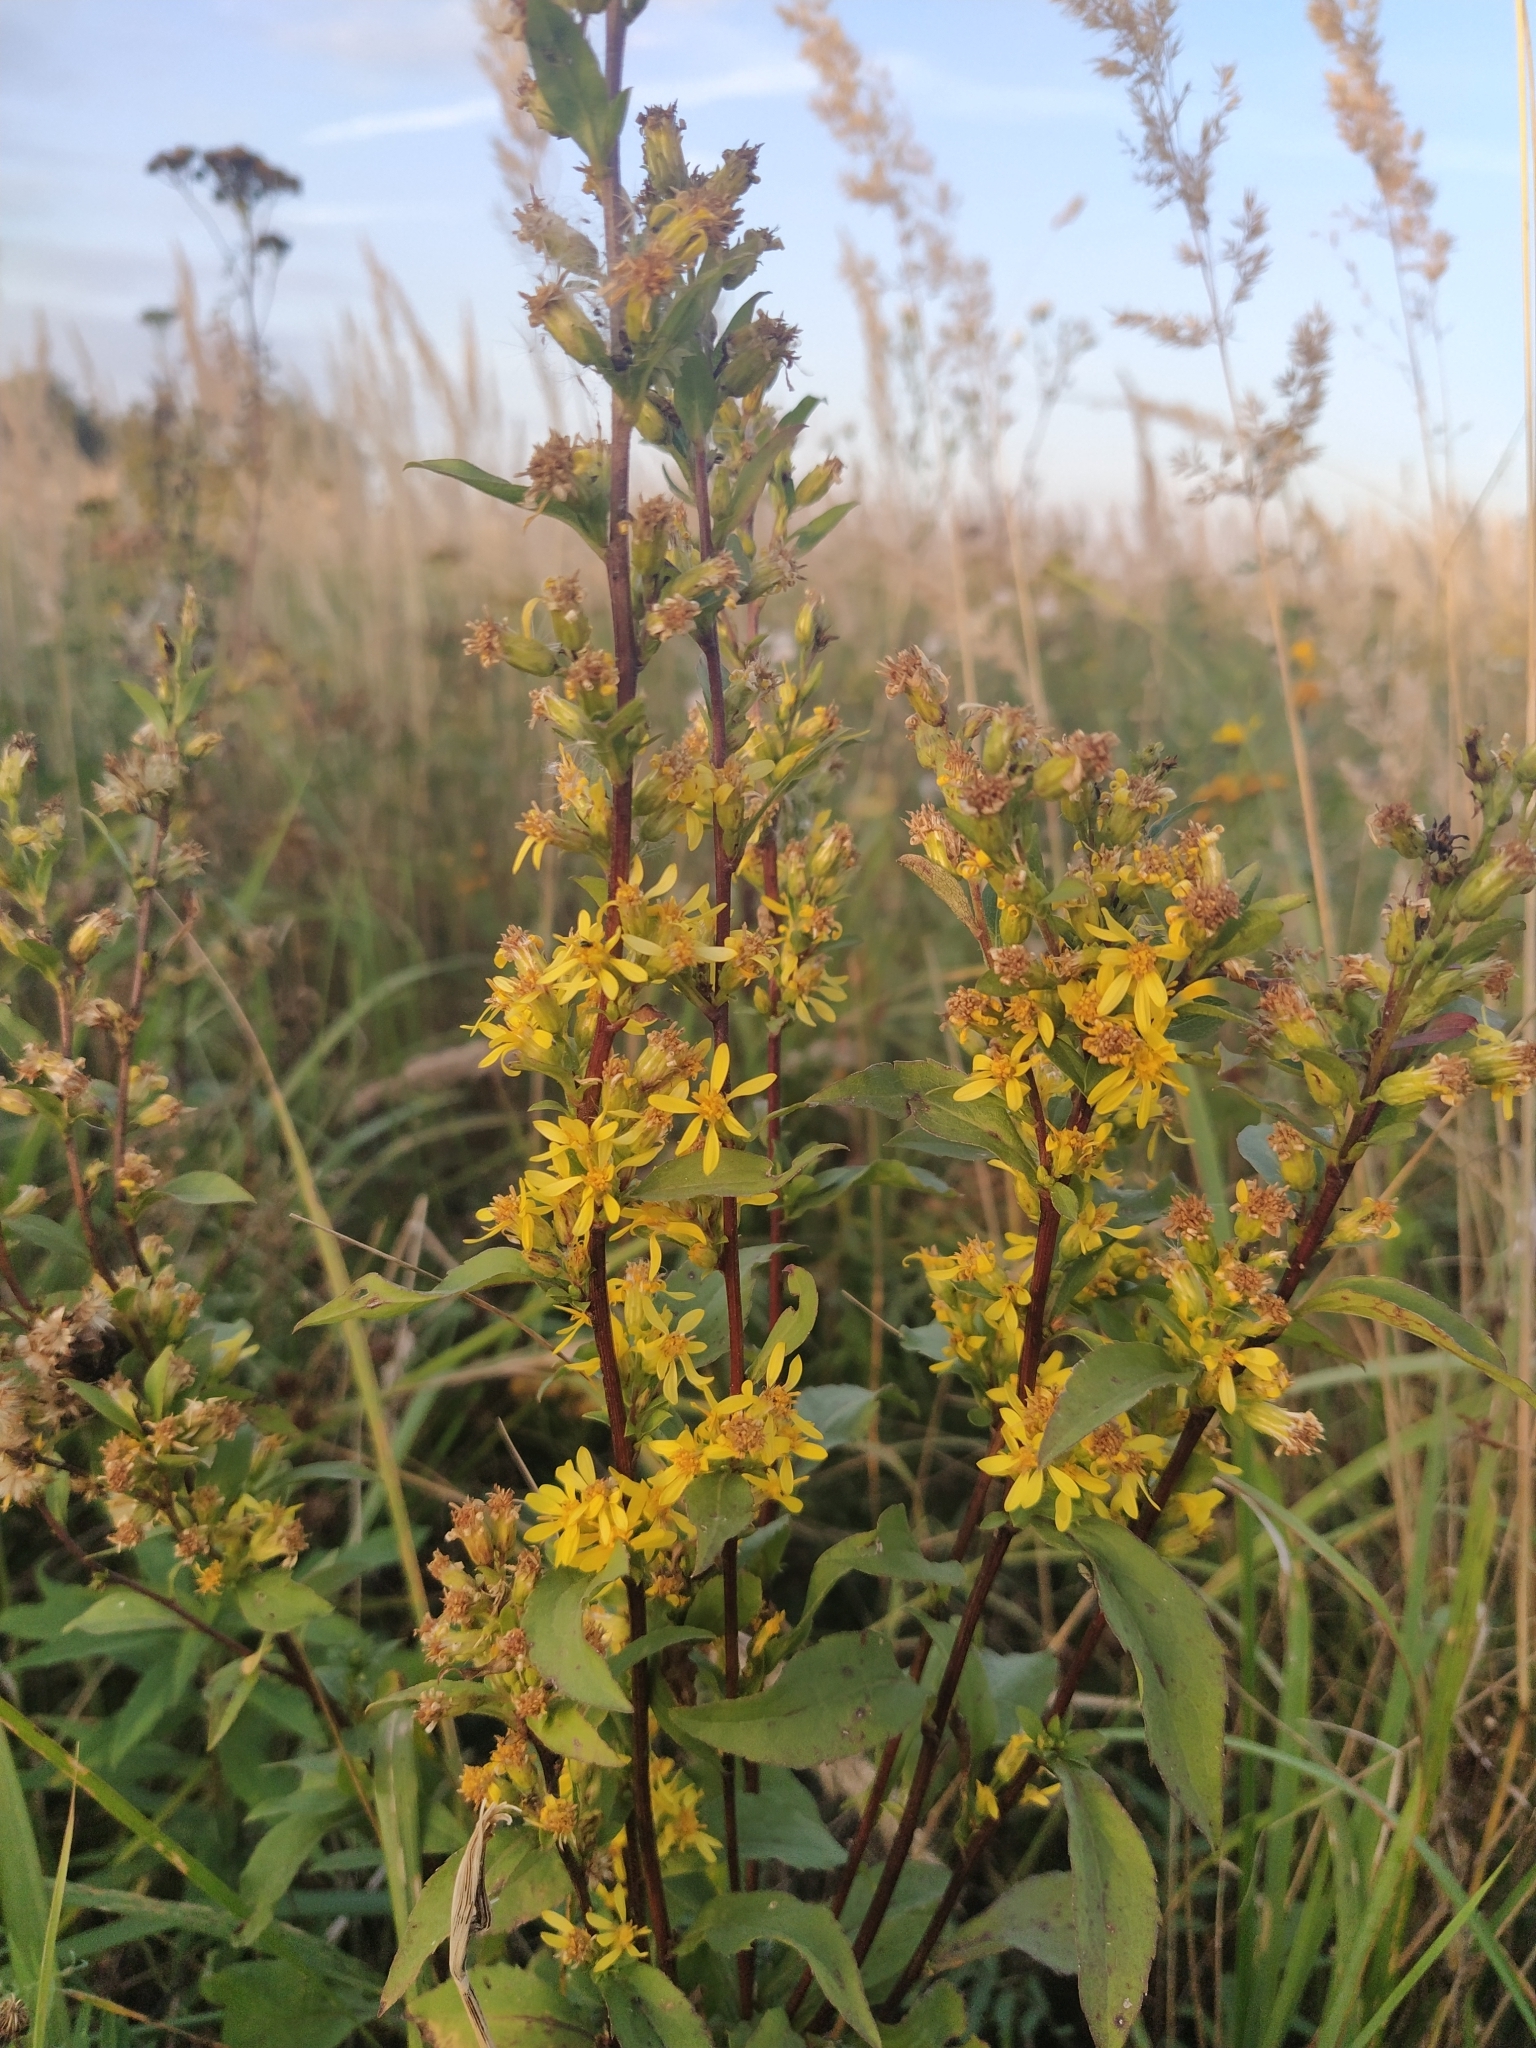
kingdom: Plantae
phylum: Tracheophyta
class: Magnoliopsida
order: Asterales
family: Asteraceae
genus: Solidago
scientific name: Solidago virgaurea
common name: Goldenrod
